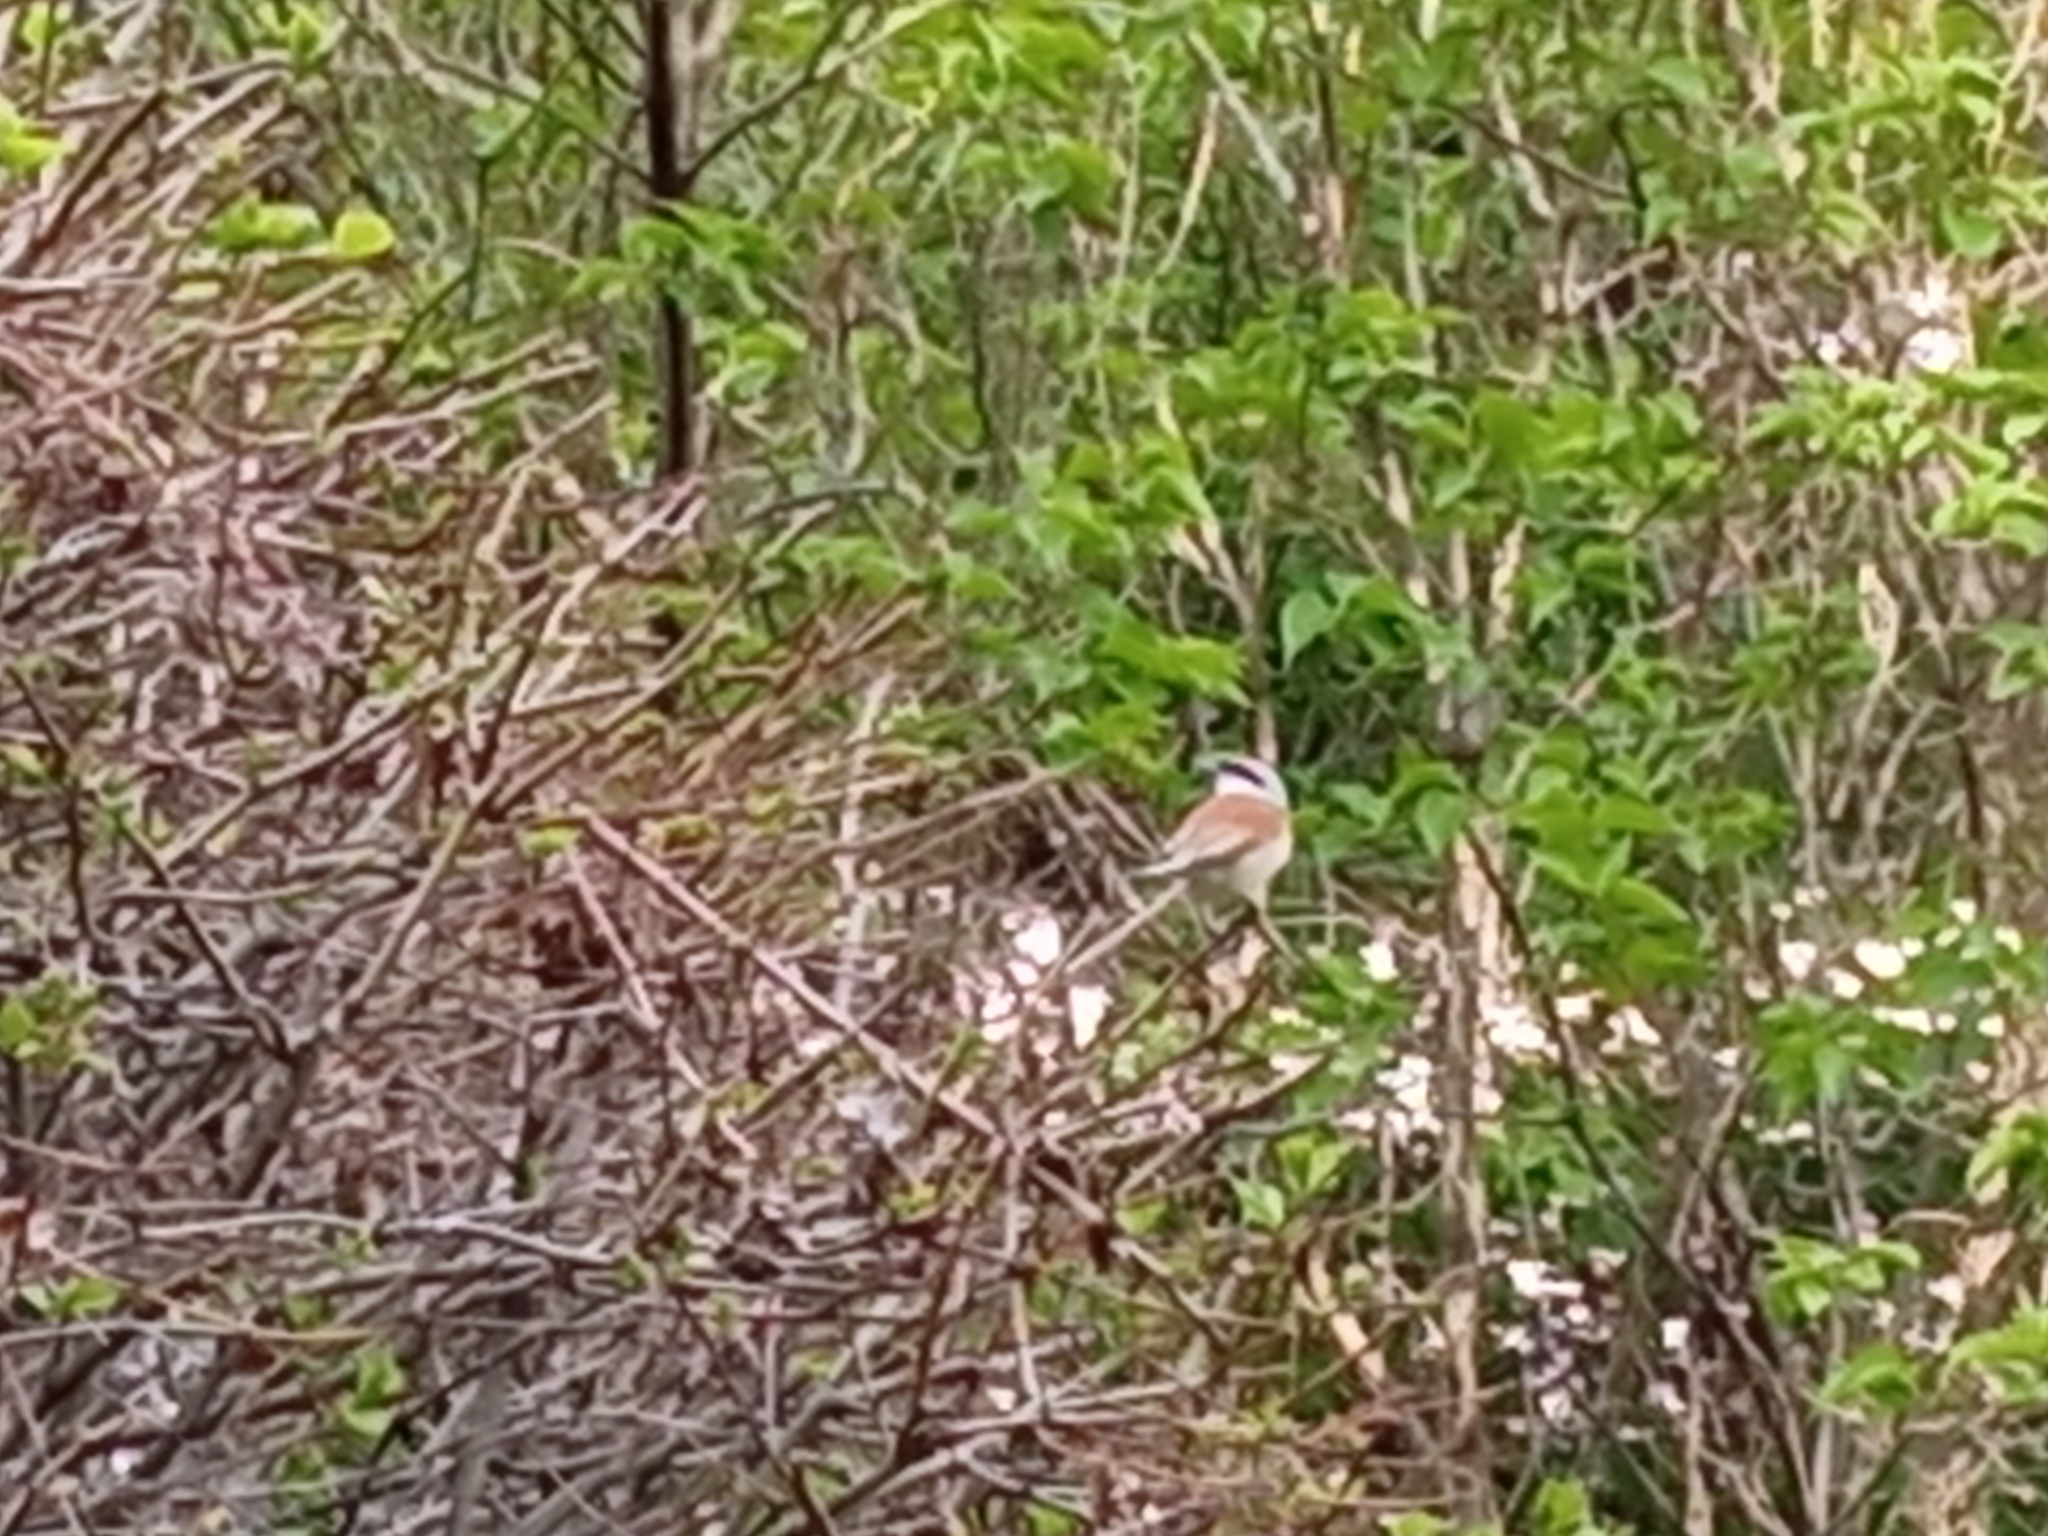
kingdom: Animalia
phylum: Chordata
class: Aves
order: Passeriformes
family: Laniidae
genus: Lanius
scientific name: Lanius collurio
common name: Red-backed shrike
